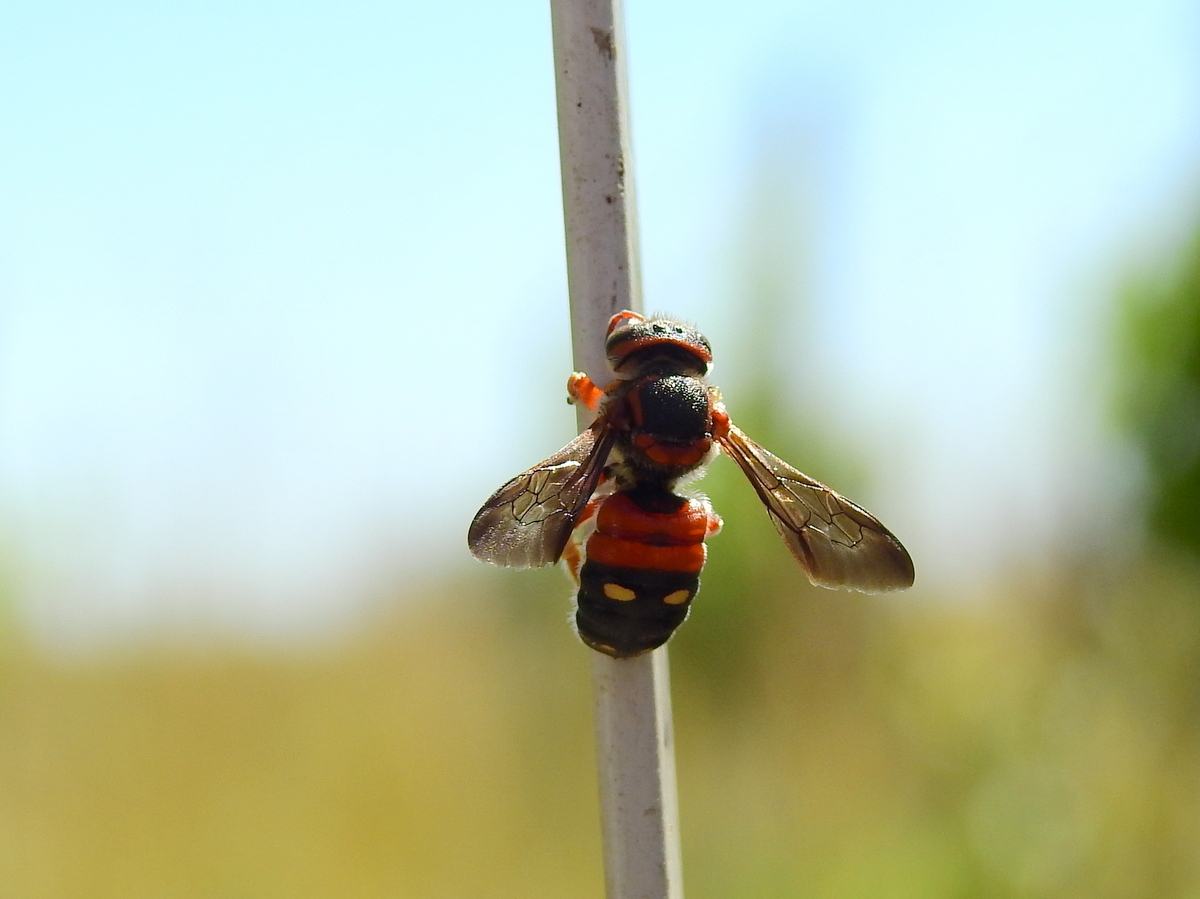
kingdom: Animalia
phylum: Arthropoda
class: Insecta
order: Hymenoptera
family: Megachilidae
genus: Epanthidium
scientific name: Epanthidium confusum
